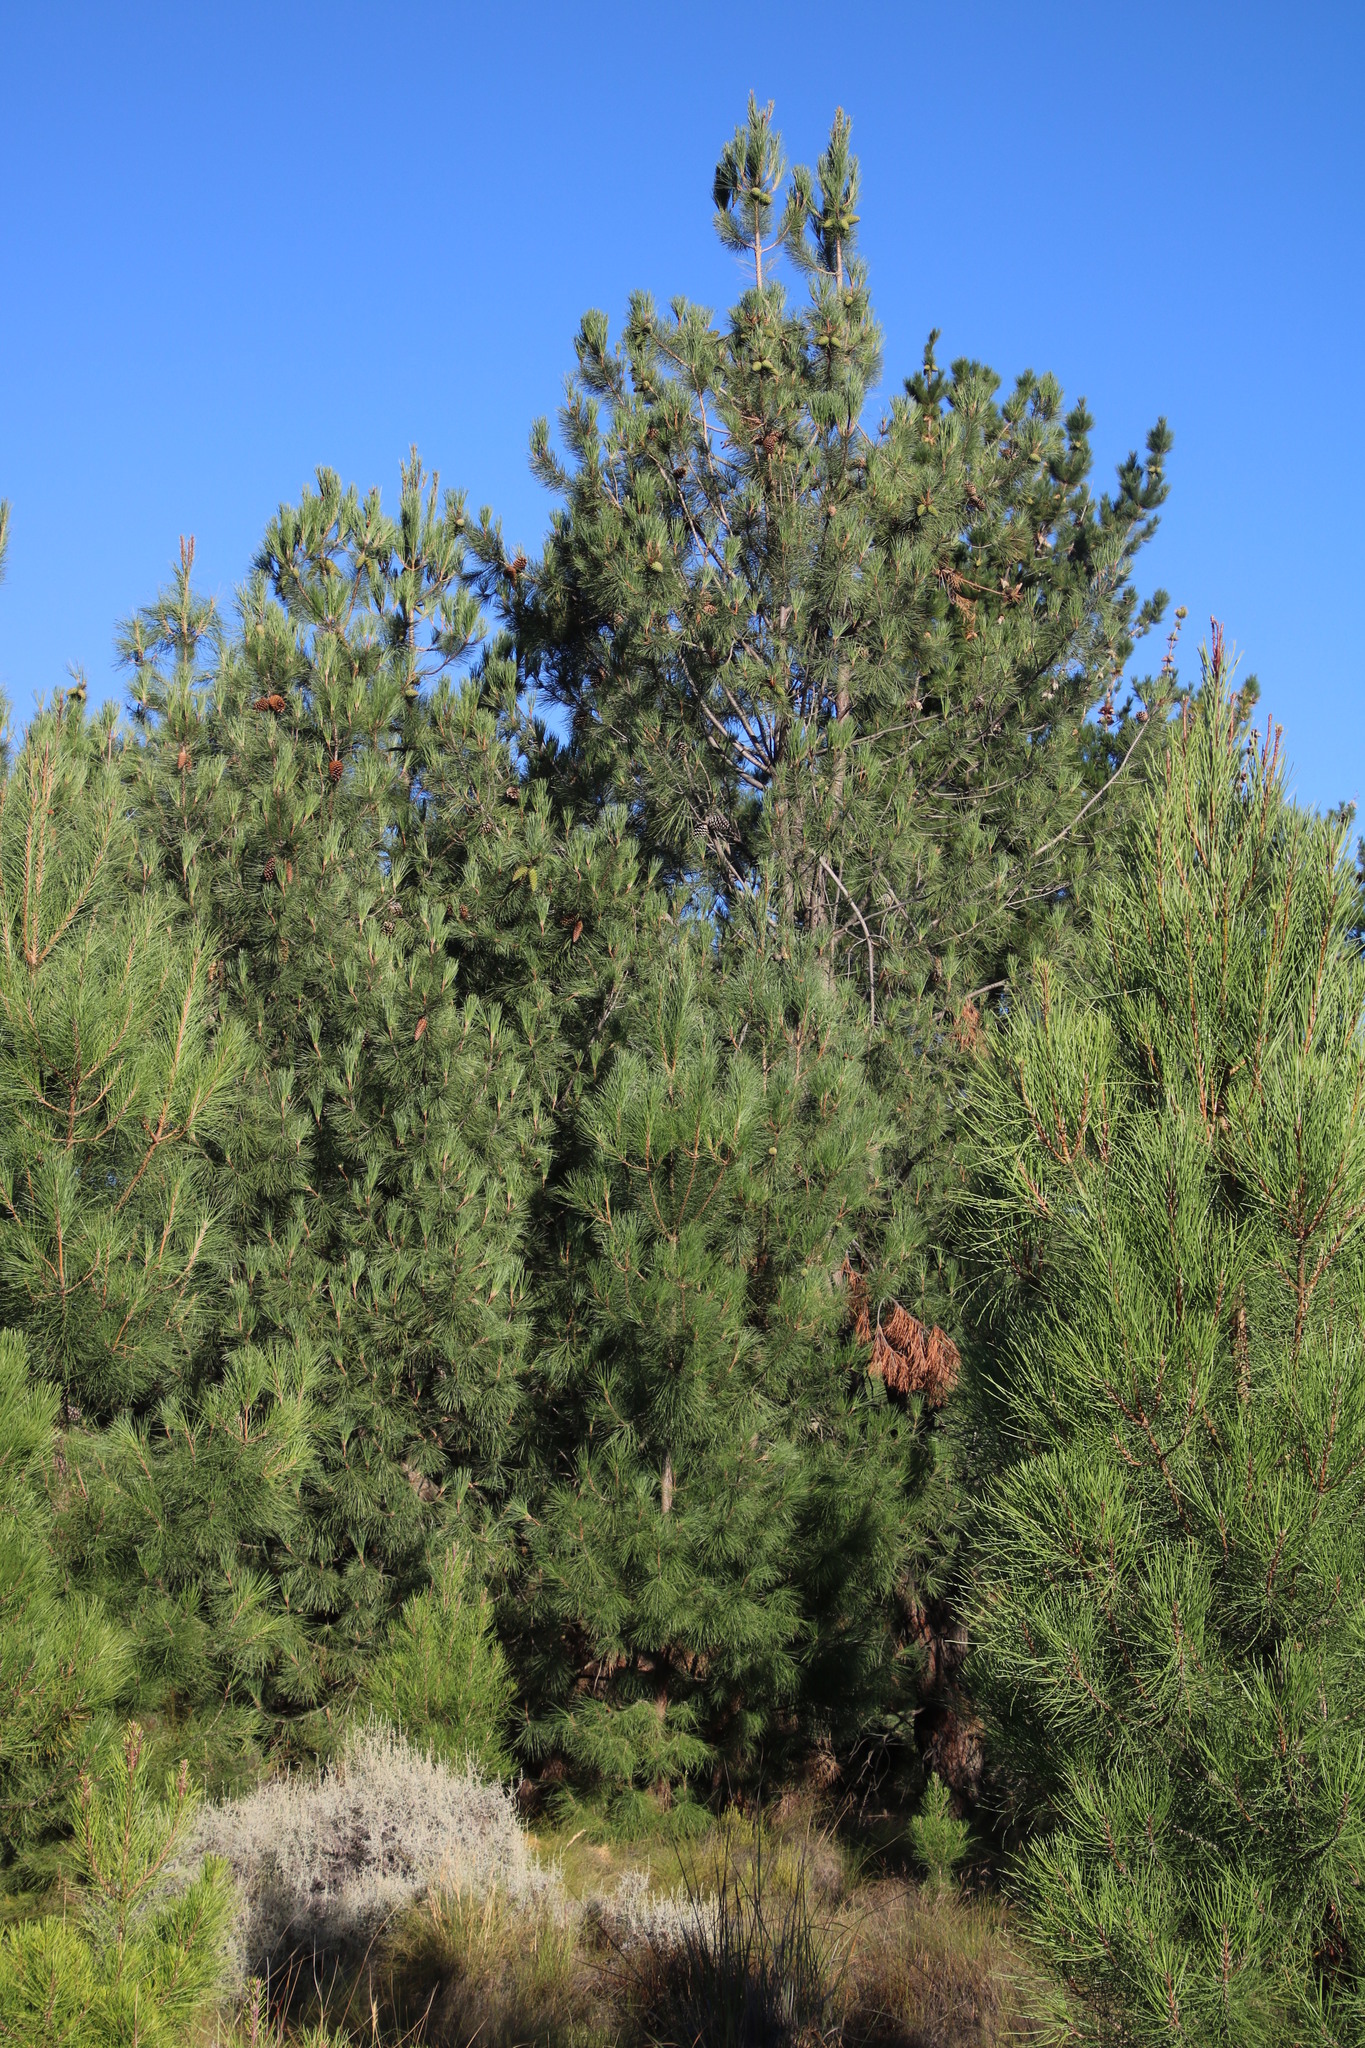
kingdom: Plantae
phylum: Tracheophyta
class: Pinopsida
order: Pinales
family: Pinaceae
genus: Pinus
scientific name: Pinus pinaster
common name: Maritime pine
